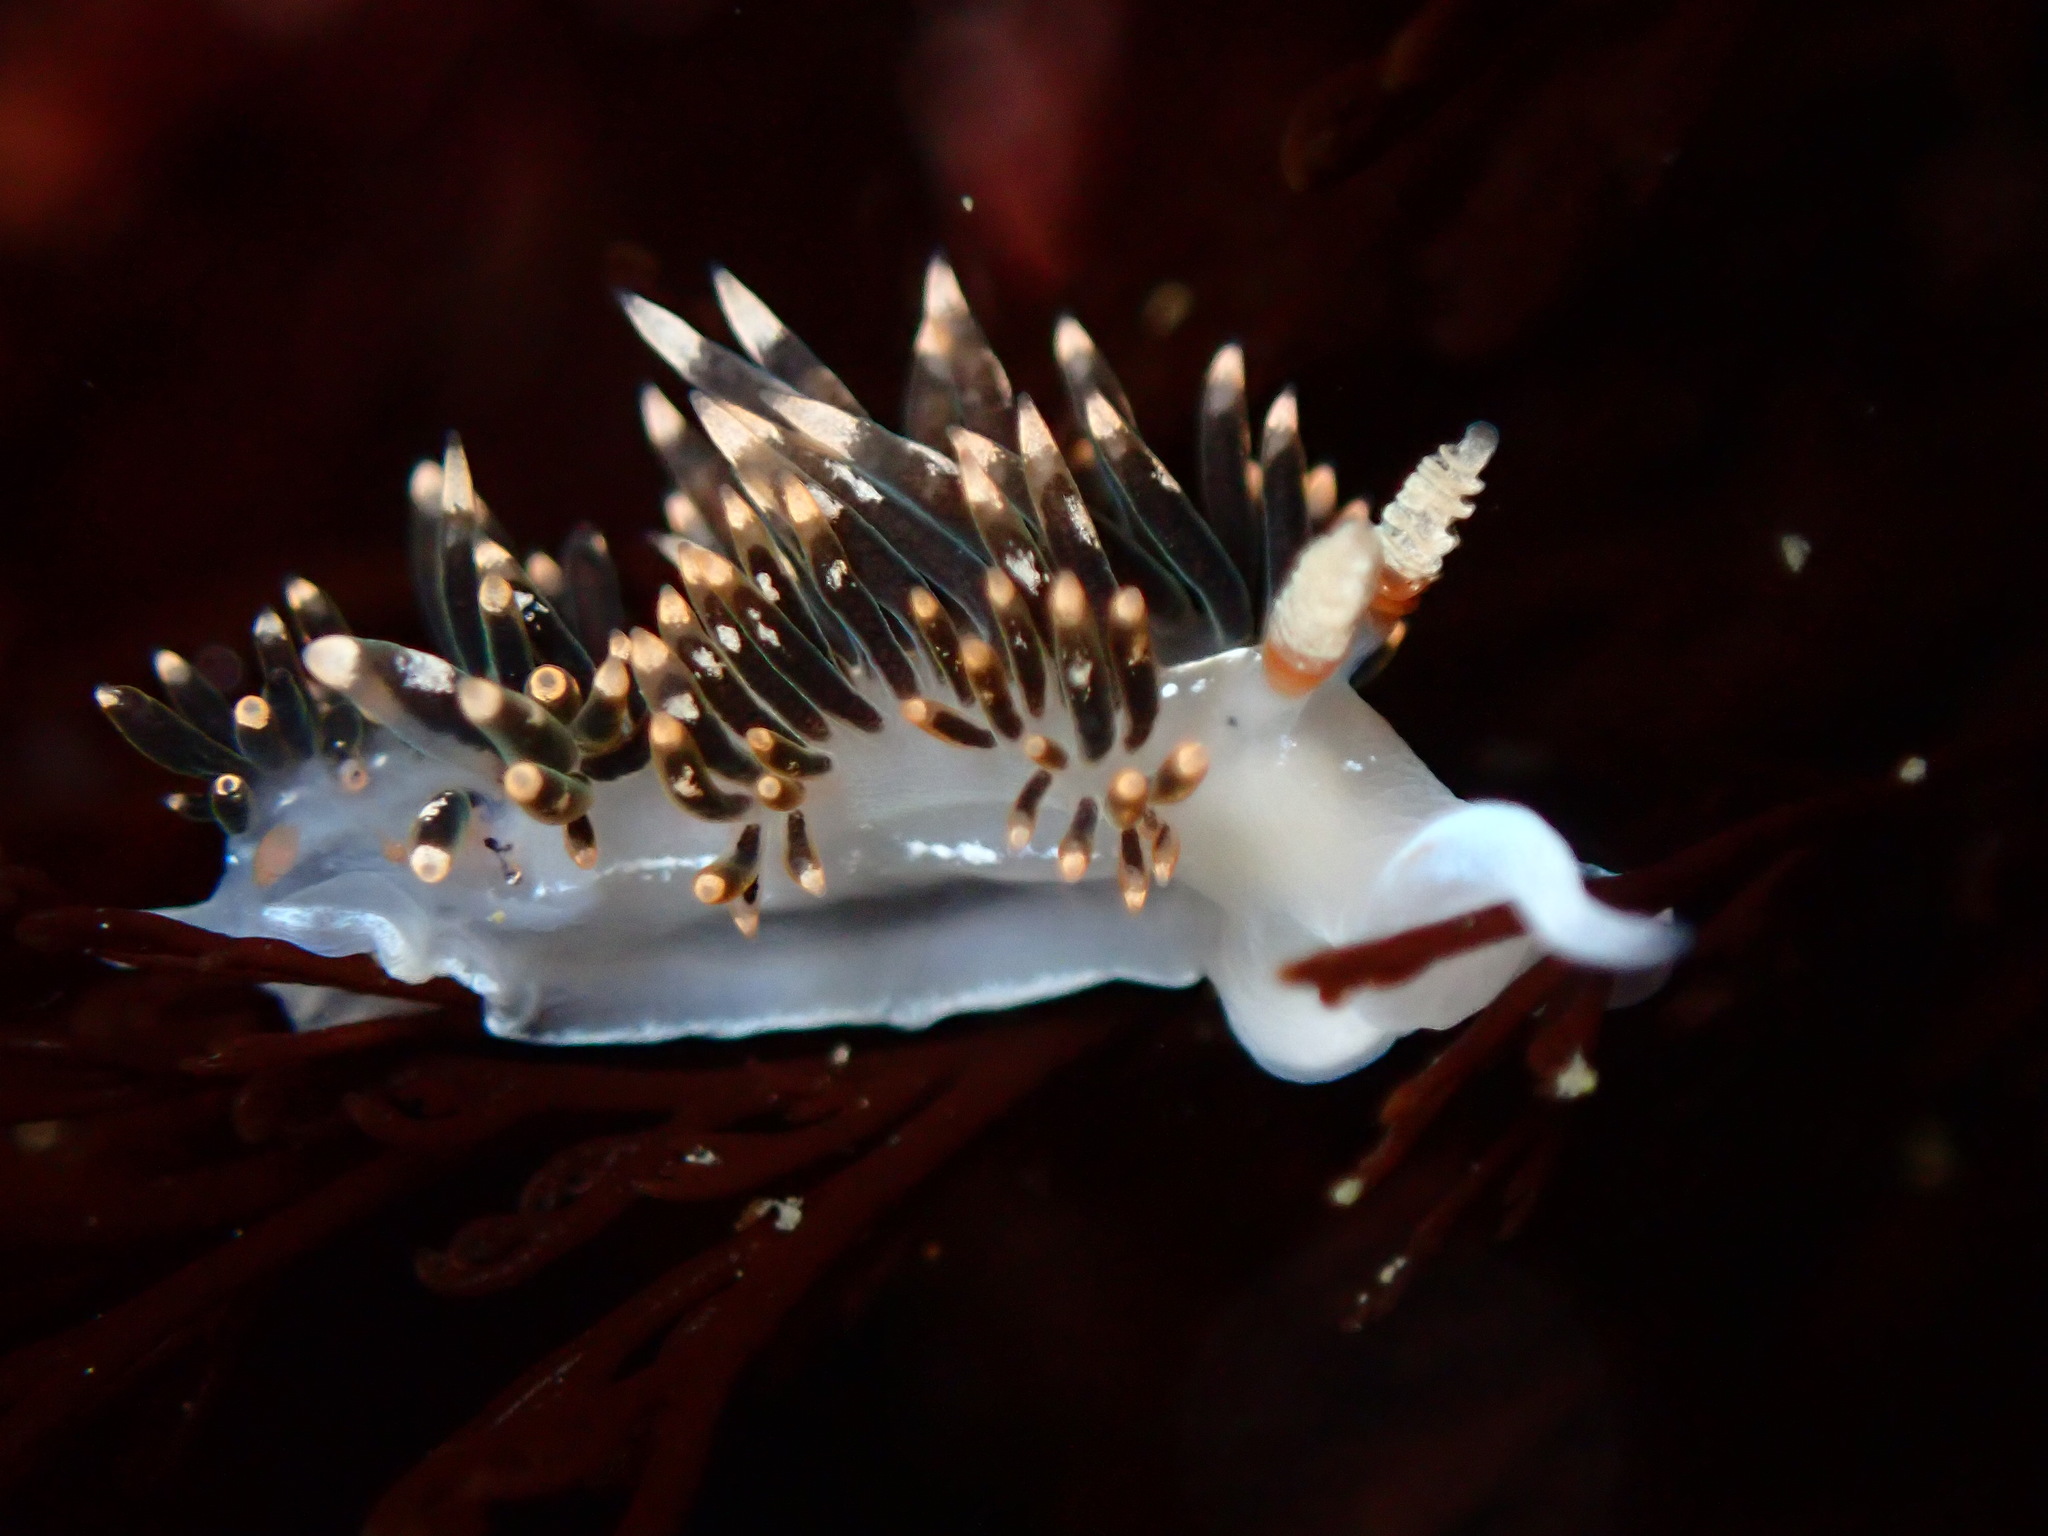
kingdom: Animalia
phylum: Mollusca
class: Gastropoda
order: Nudibranchia
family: Facelinidae
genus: Phidiana
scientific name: Phidiana hiltoni
